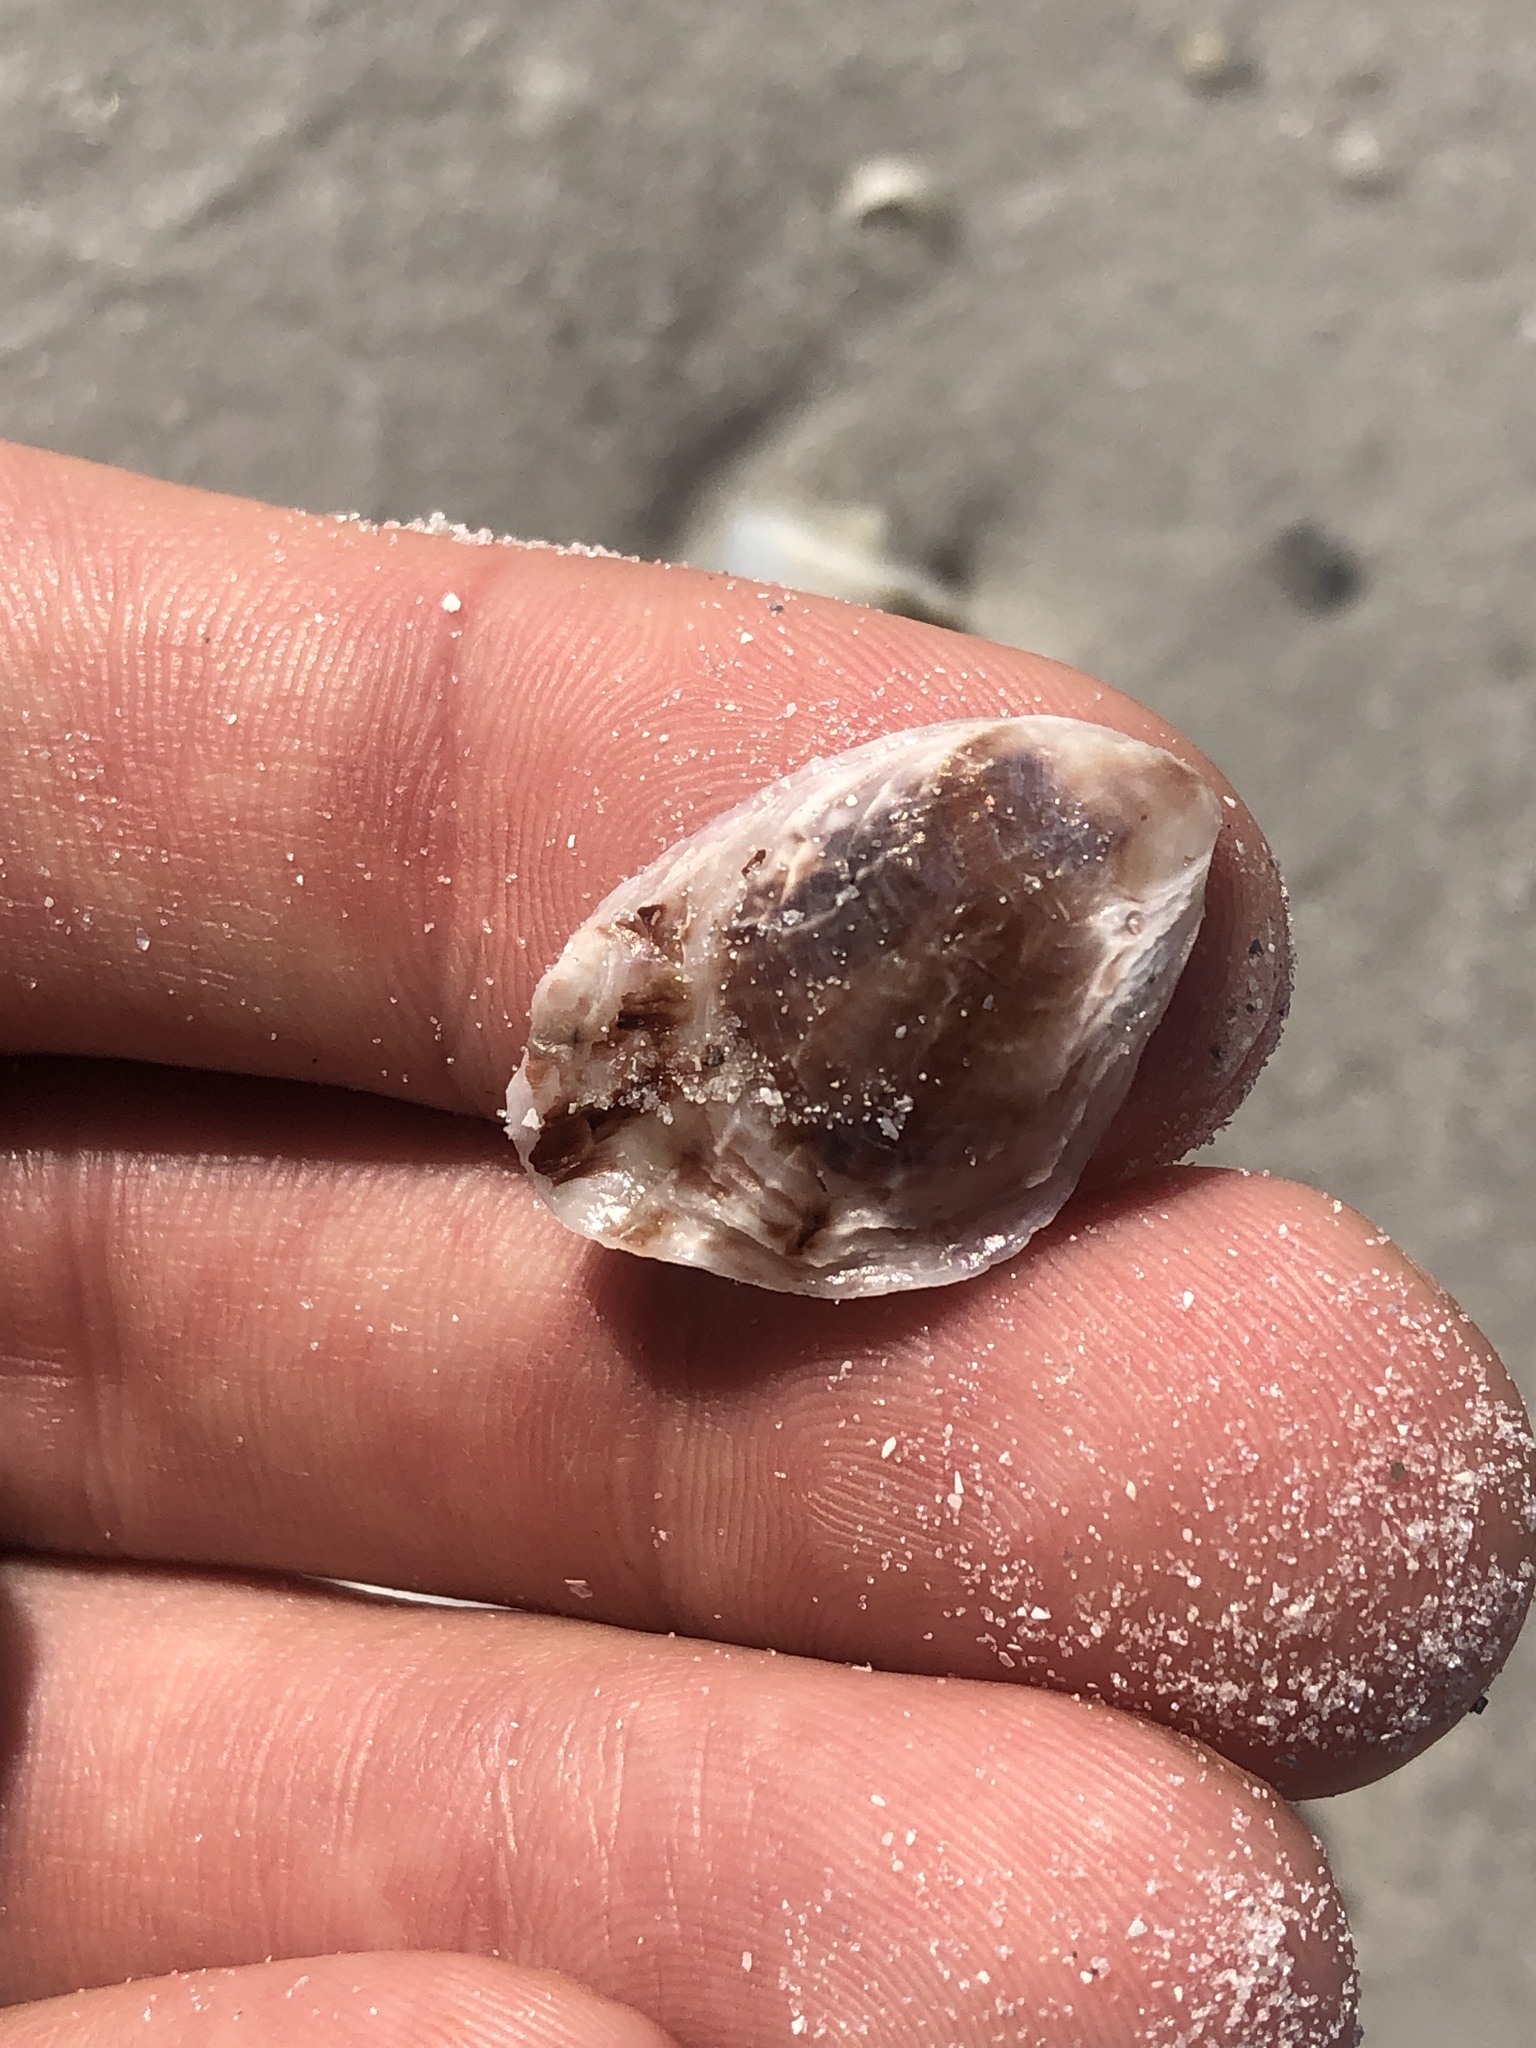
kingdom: Animalia
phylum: Mollusca
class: Bivalvia
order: Ostreida
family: Ostreidae
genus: Crassostrea
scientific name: Crassostrea virginica
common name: American oyster
